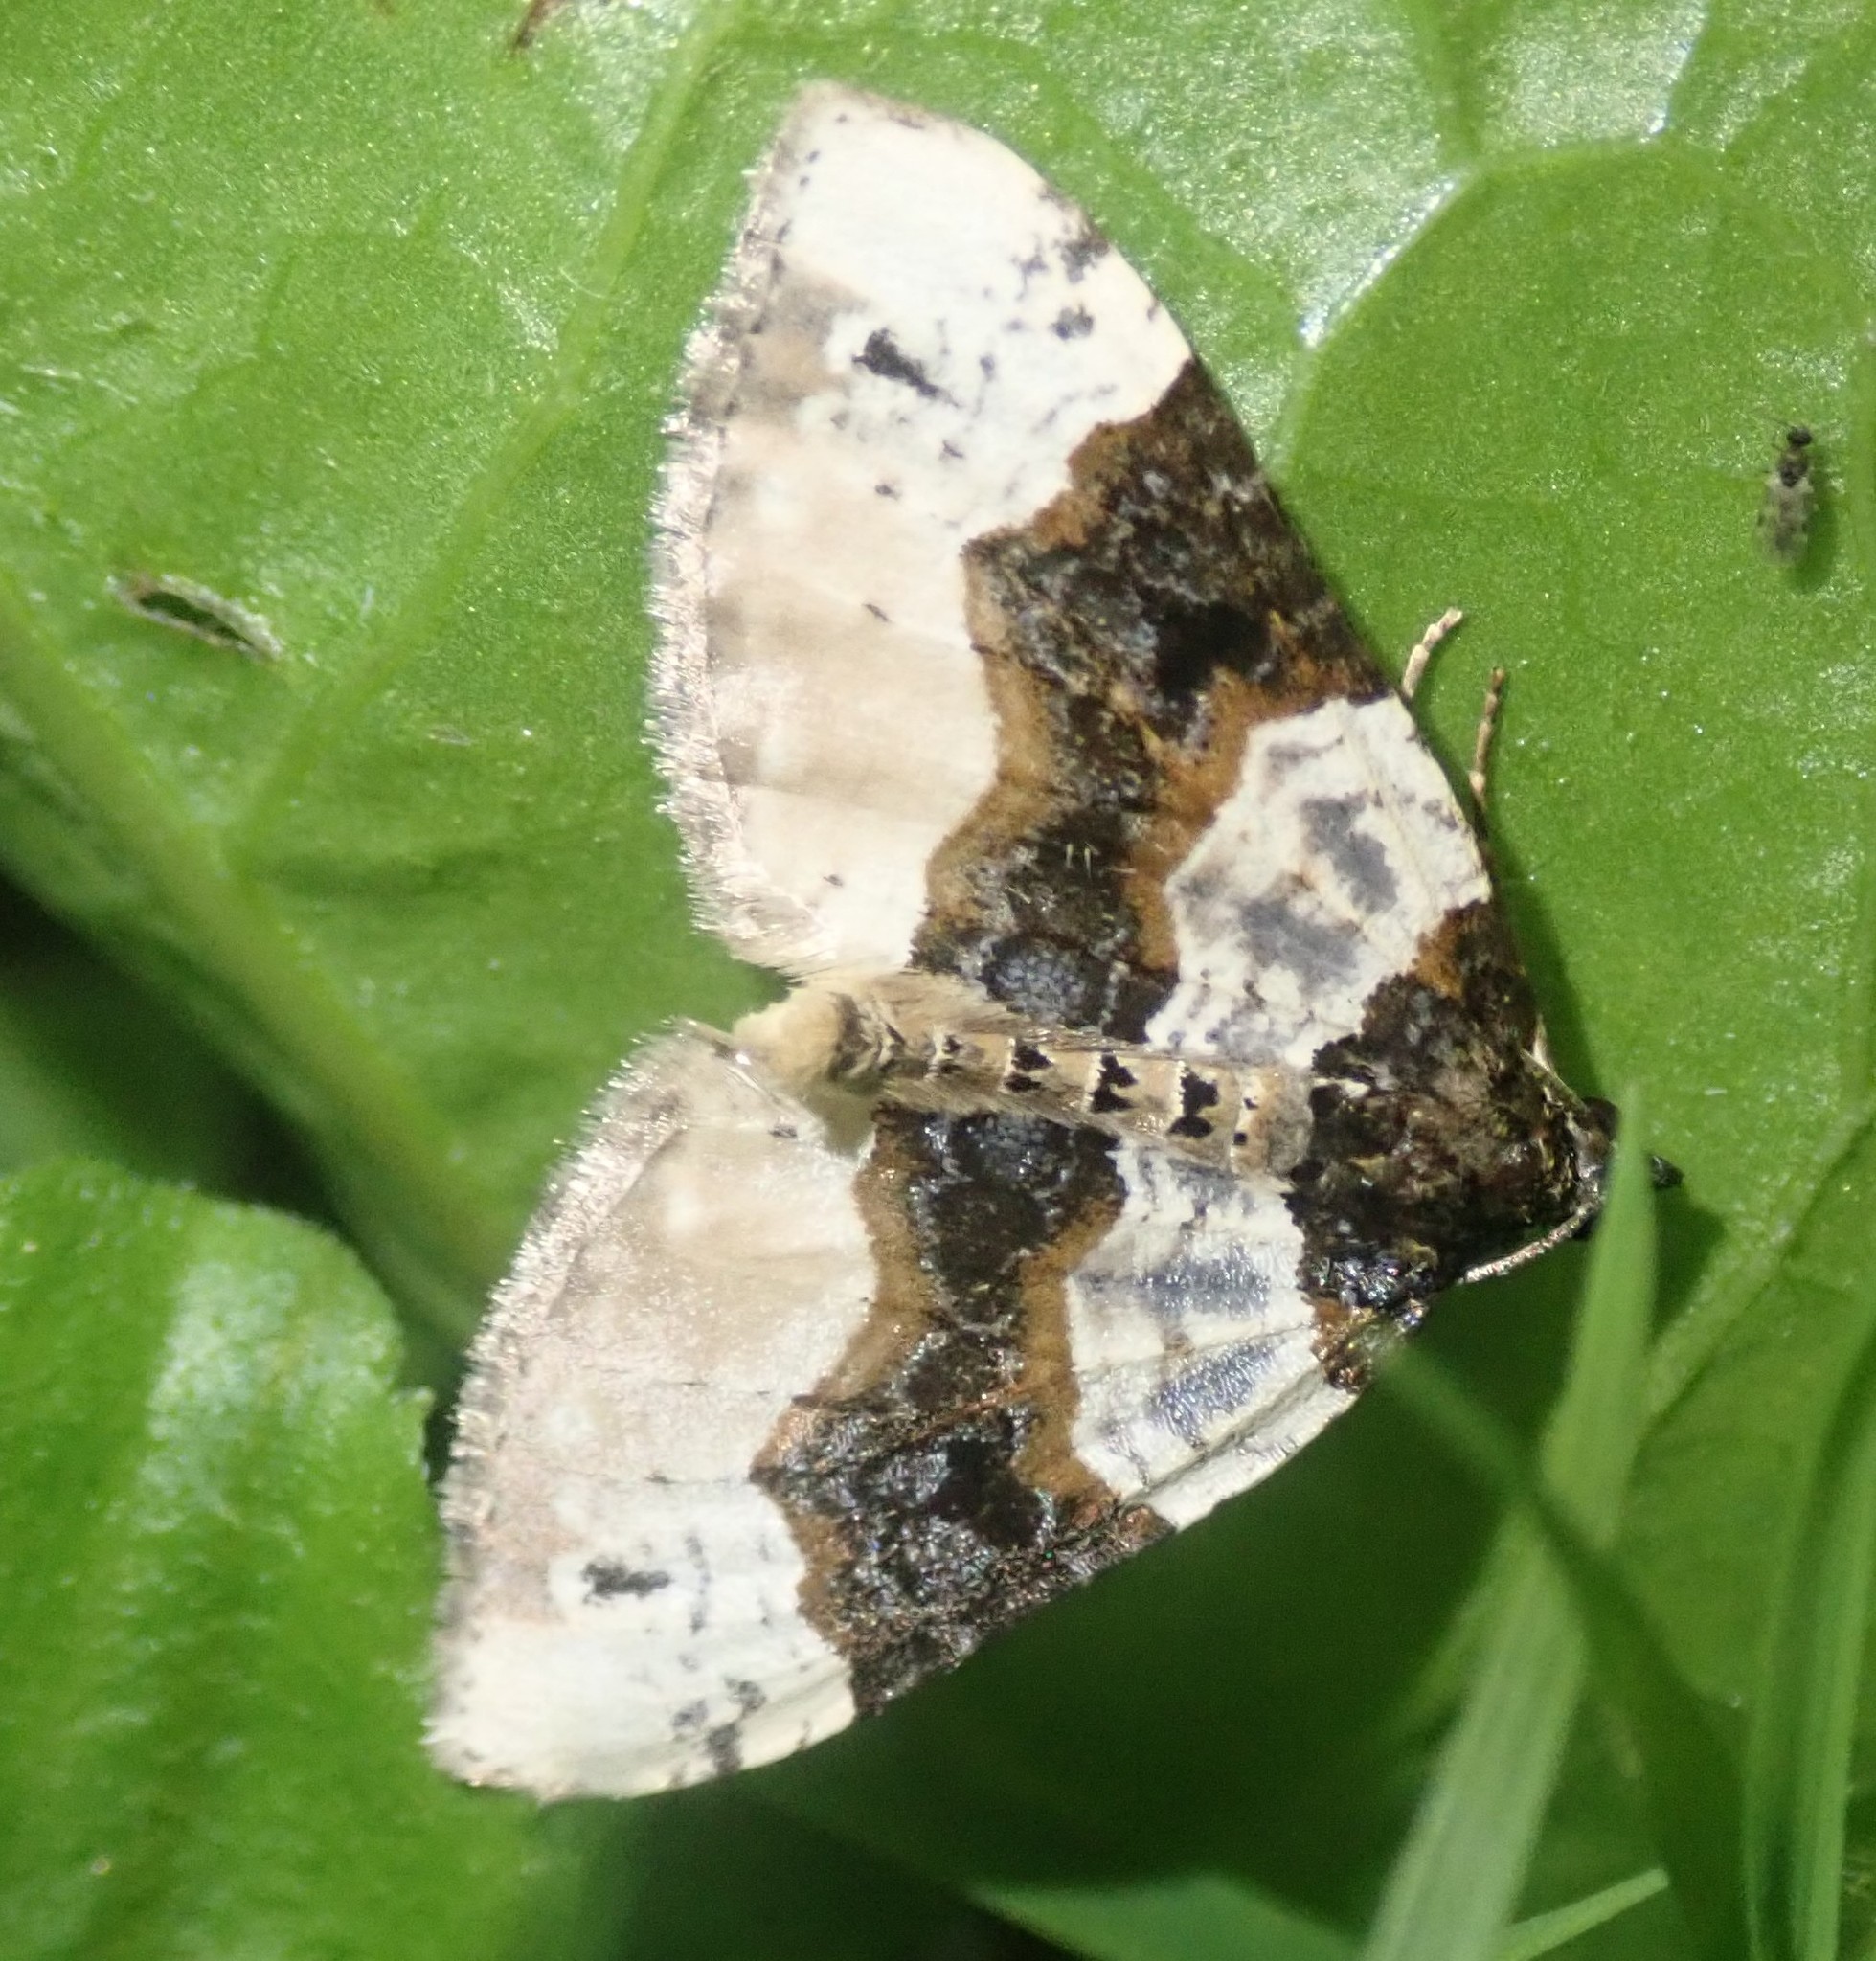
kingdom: Animalia
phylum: Arthropoda
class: Insecta
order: Lepidoptera
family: Geometridae
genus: Cosmorhoe
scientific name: Cosmorhoe ocellata
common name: Purple bar
